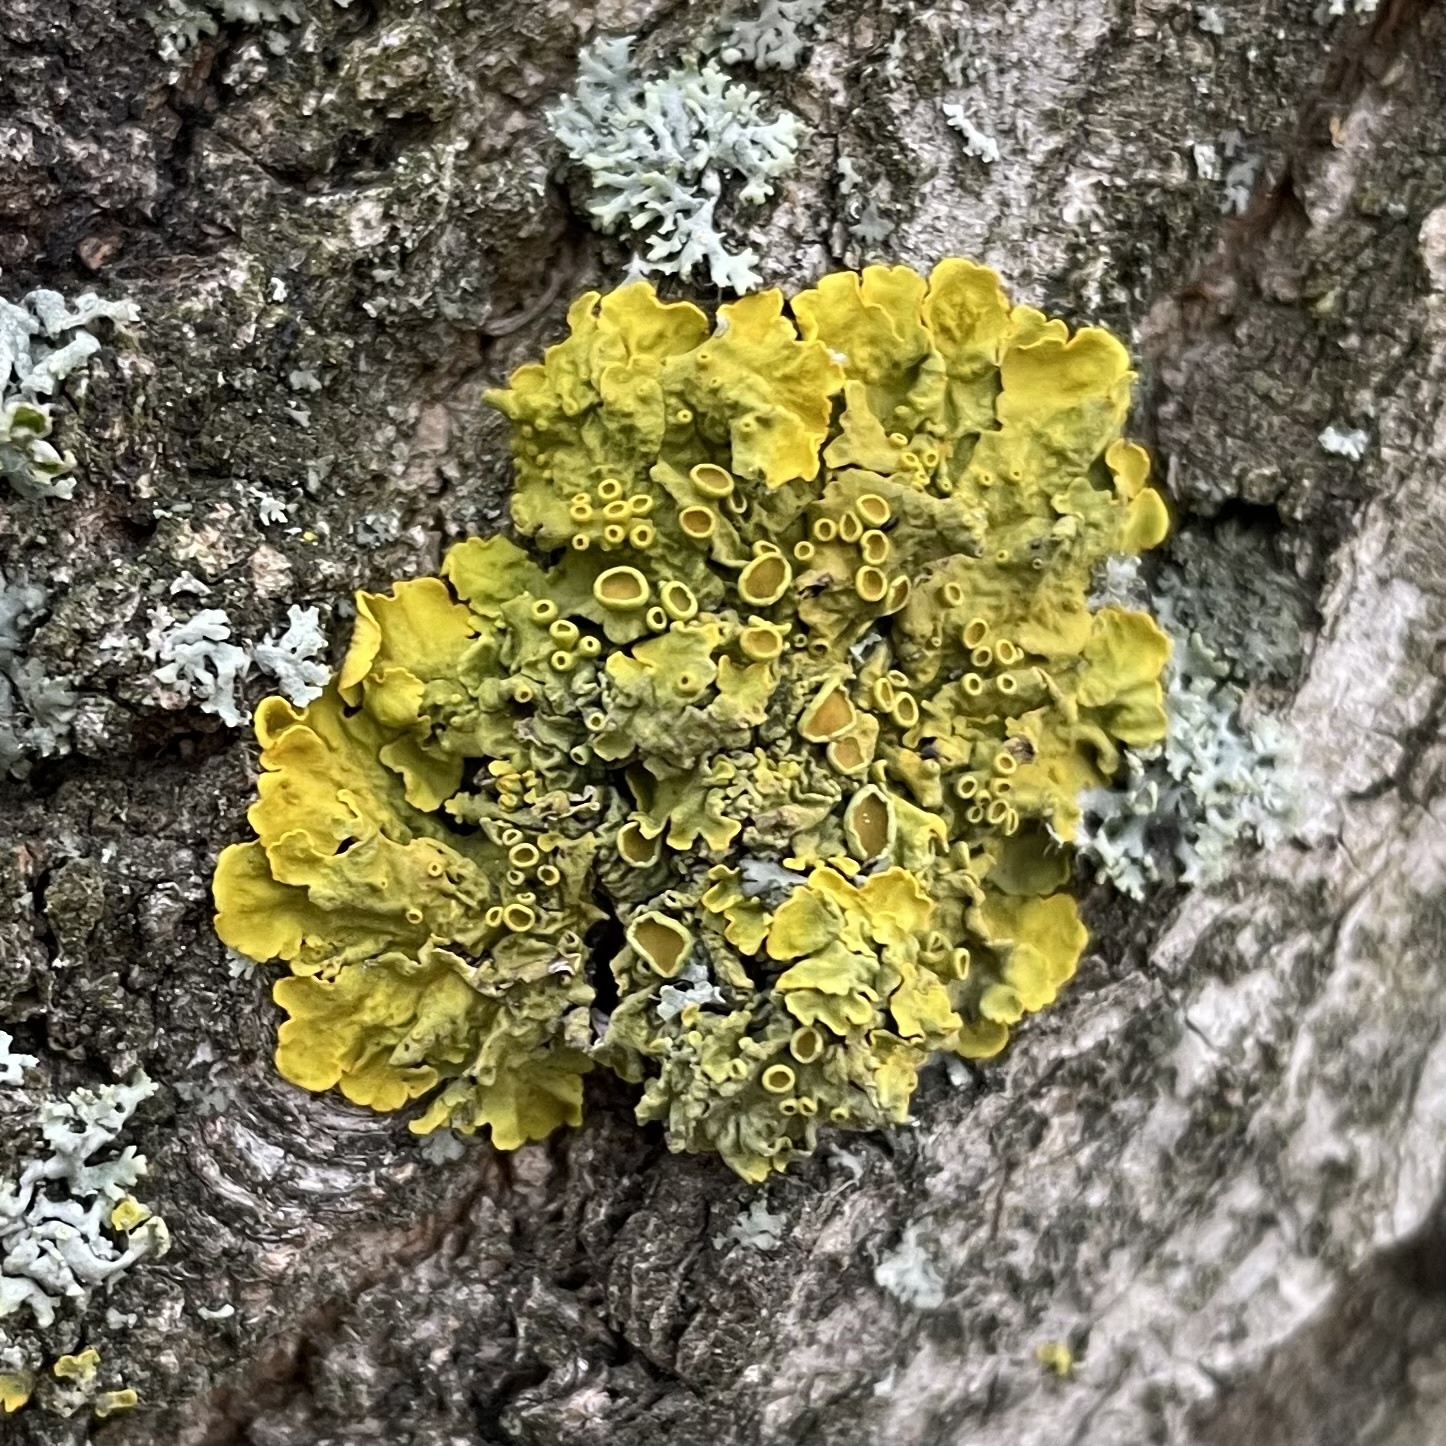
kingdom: Fungi
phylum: Ascomycota
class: Lecanoromycetes
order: Teloschistales
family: Teloschistaceae
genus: Xanthoria
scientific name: Xanthoria parietina
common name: Common orange lichen
